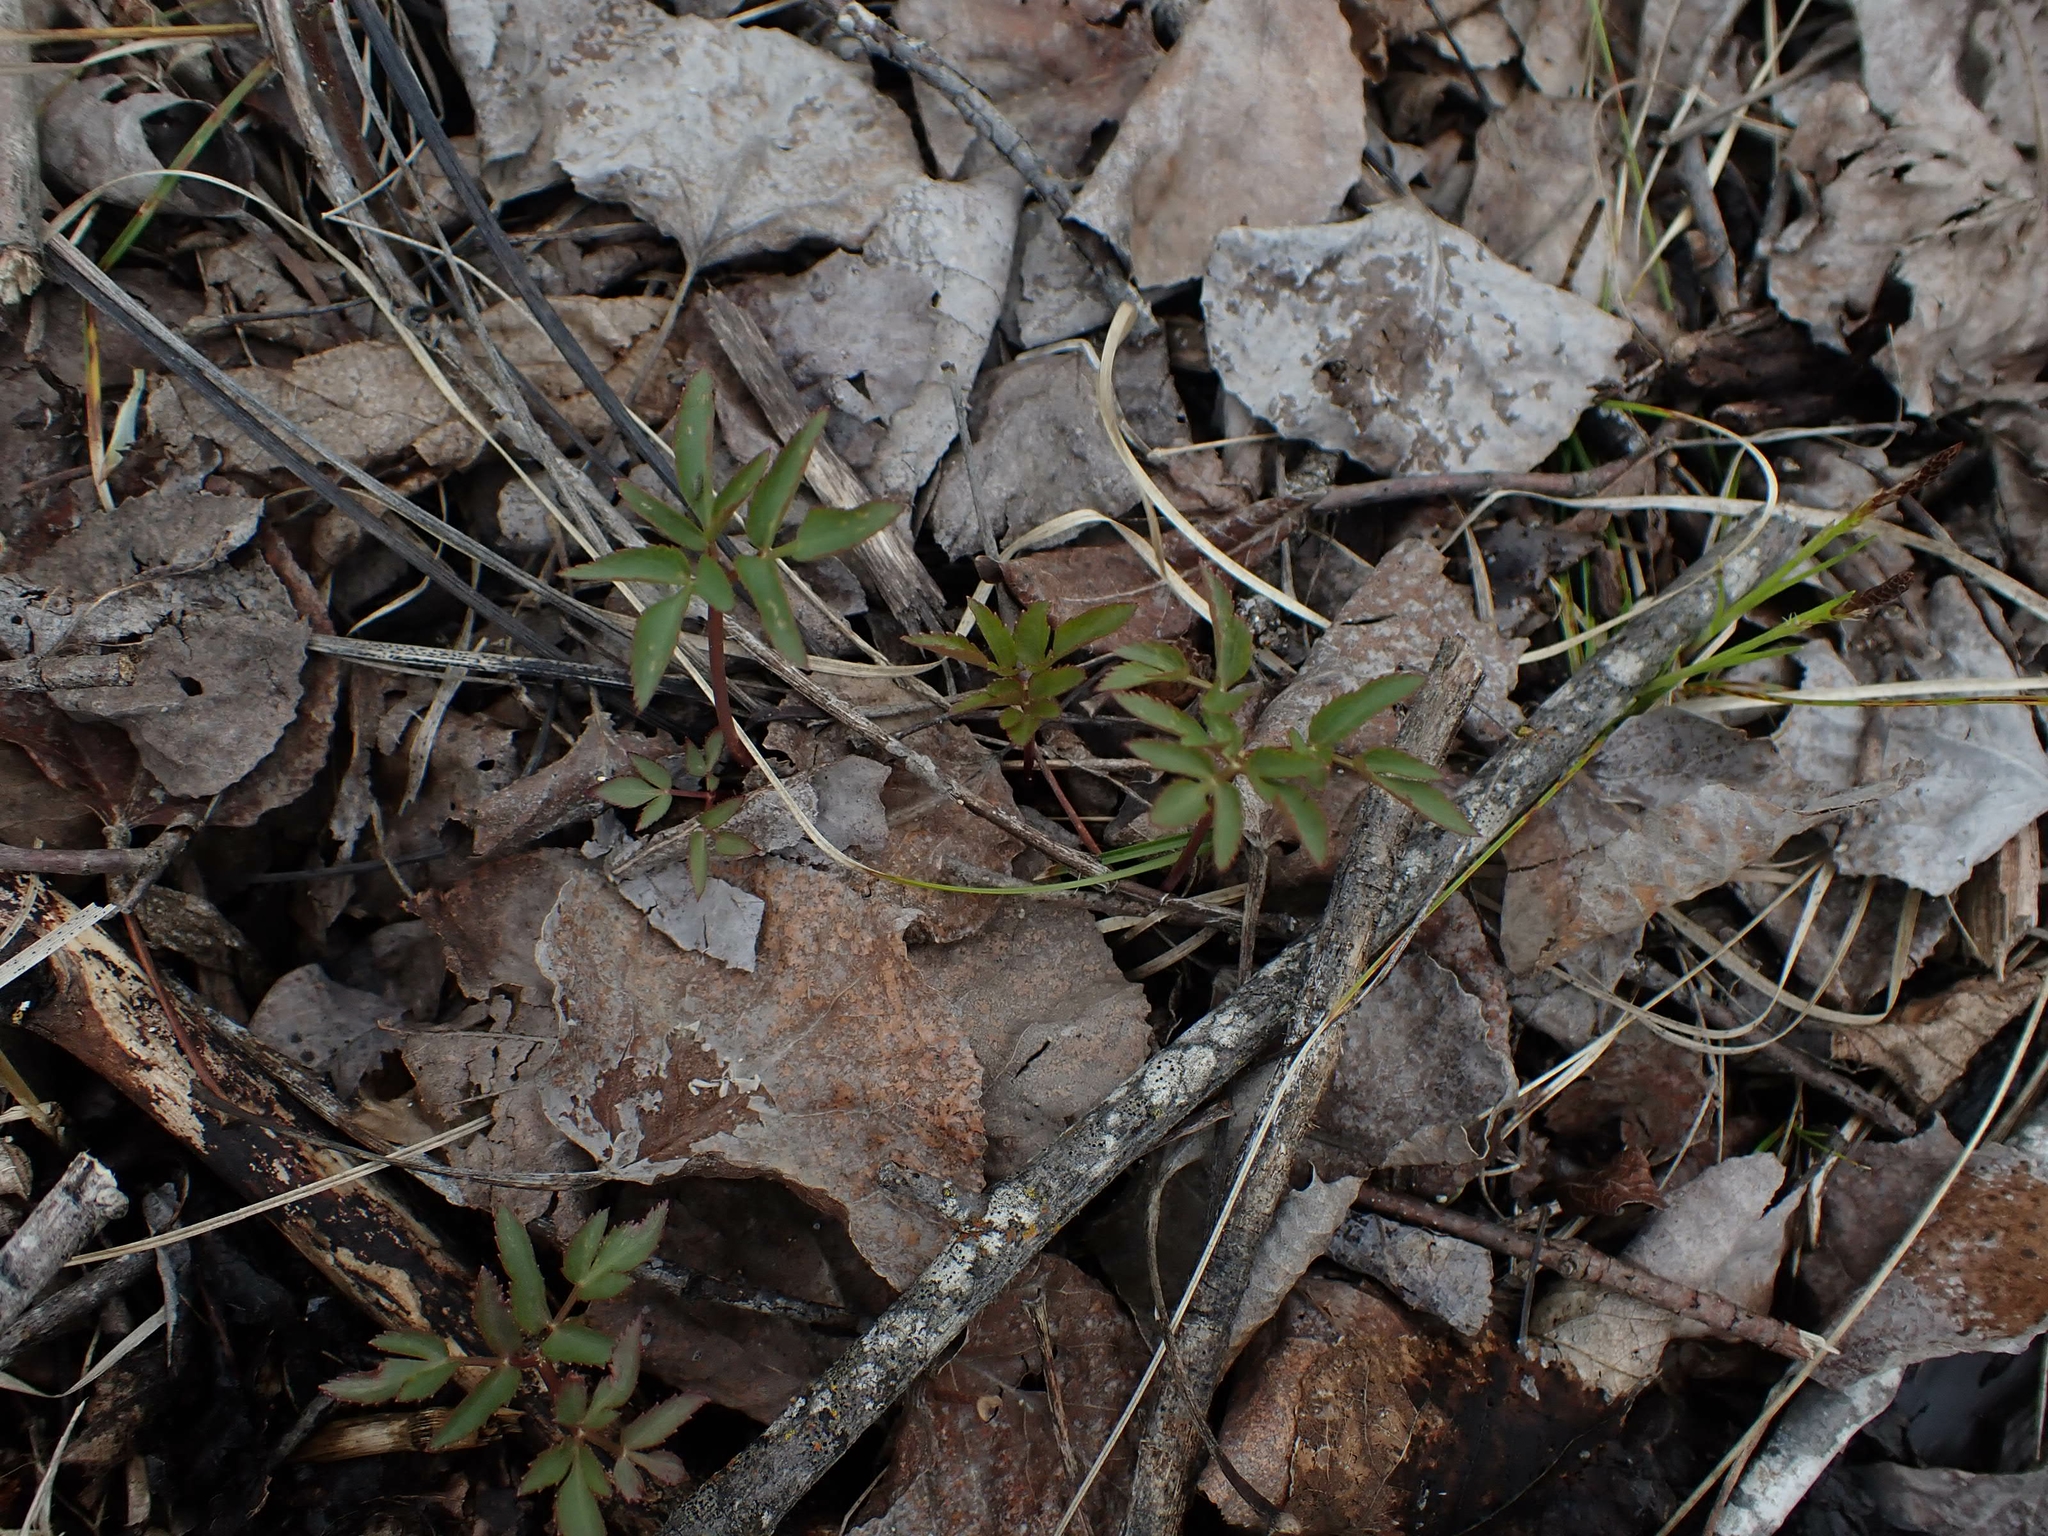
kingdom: Plantae
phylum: Tracheophyta
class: Magnoliopsida
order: Apiales
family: Apiaceae
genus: Zizia
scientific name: Zizia aurea
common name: Golden alexanders
